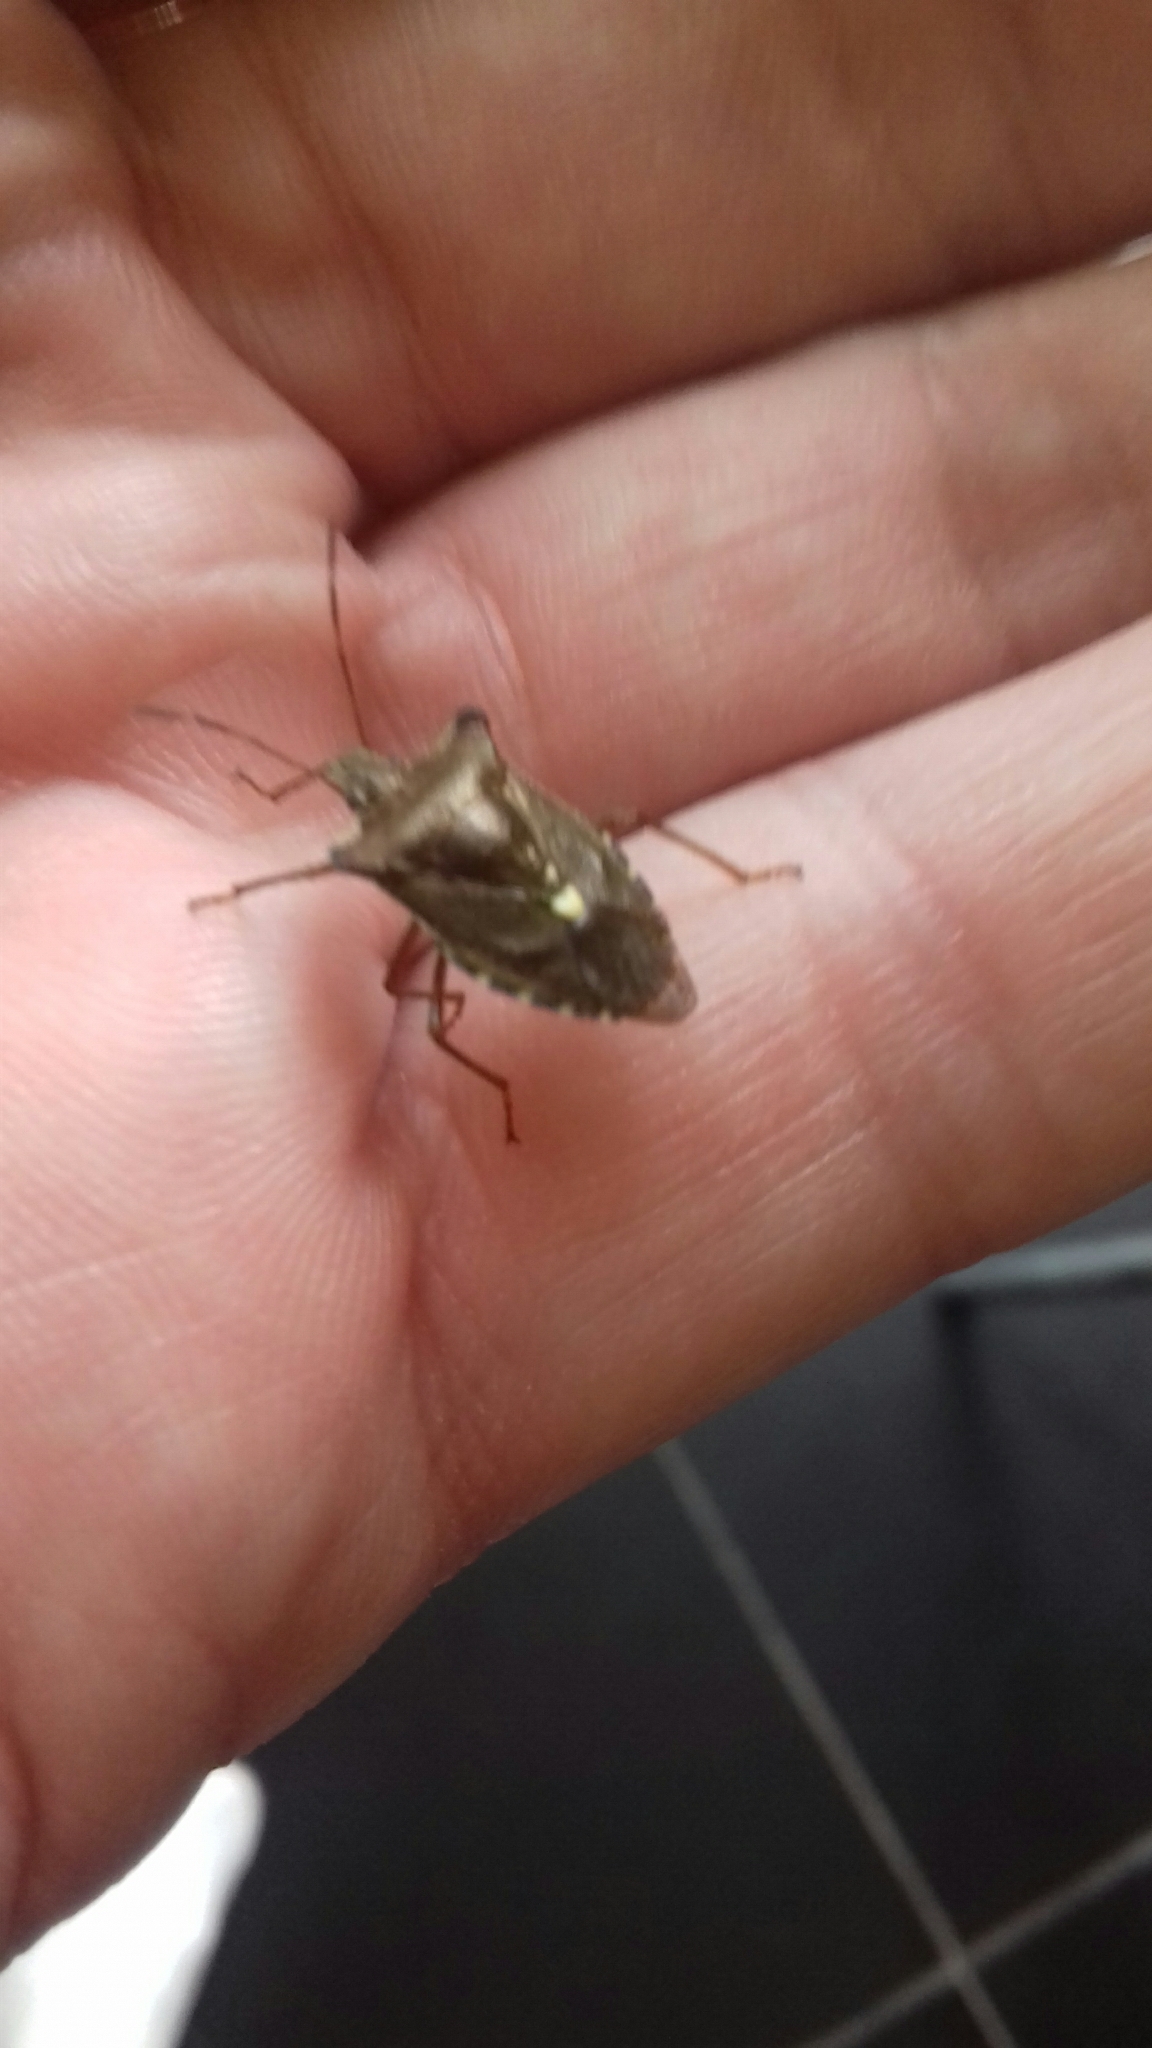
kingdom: Animalia
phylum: Arthropoda
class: Insecta
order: Hemiptera
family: Pentatomidae
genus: Pentatoma
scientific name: Pentatoma rufipes
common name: Forest bug
